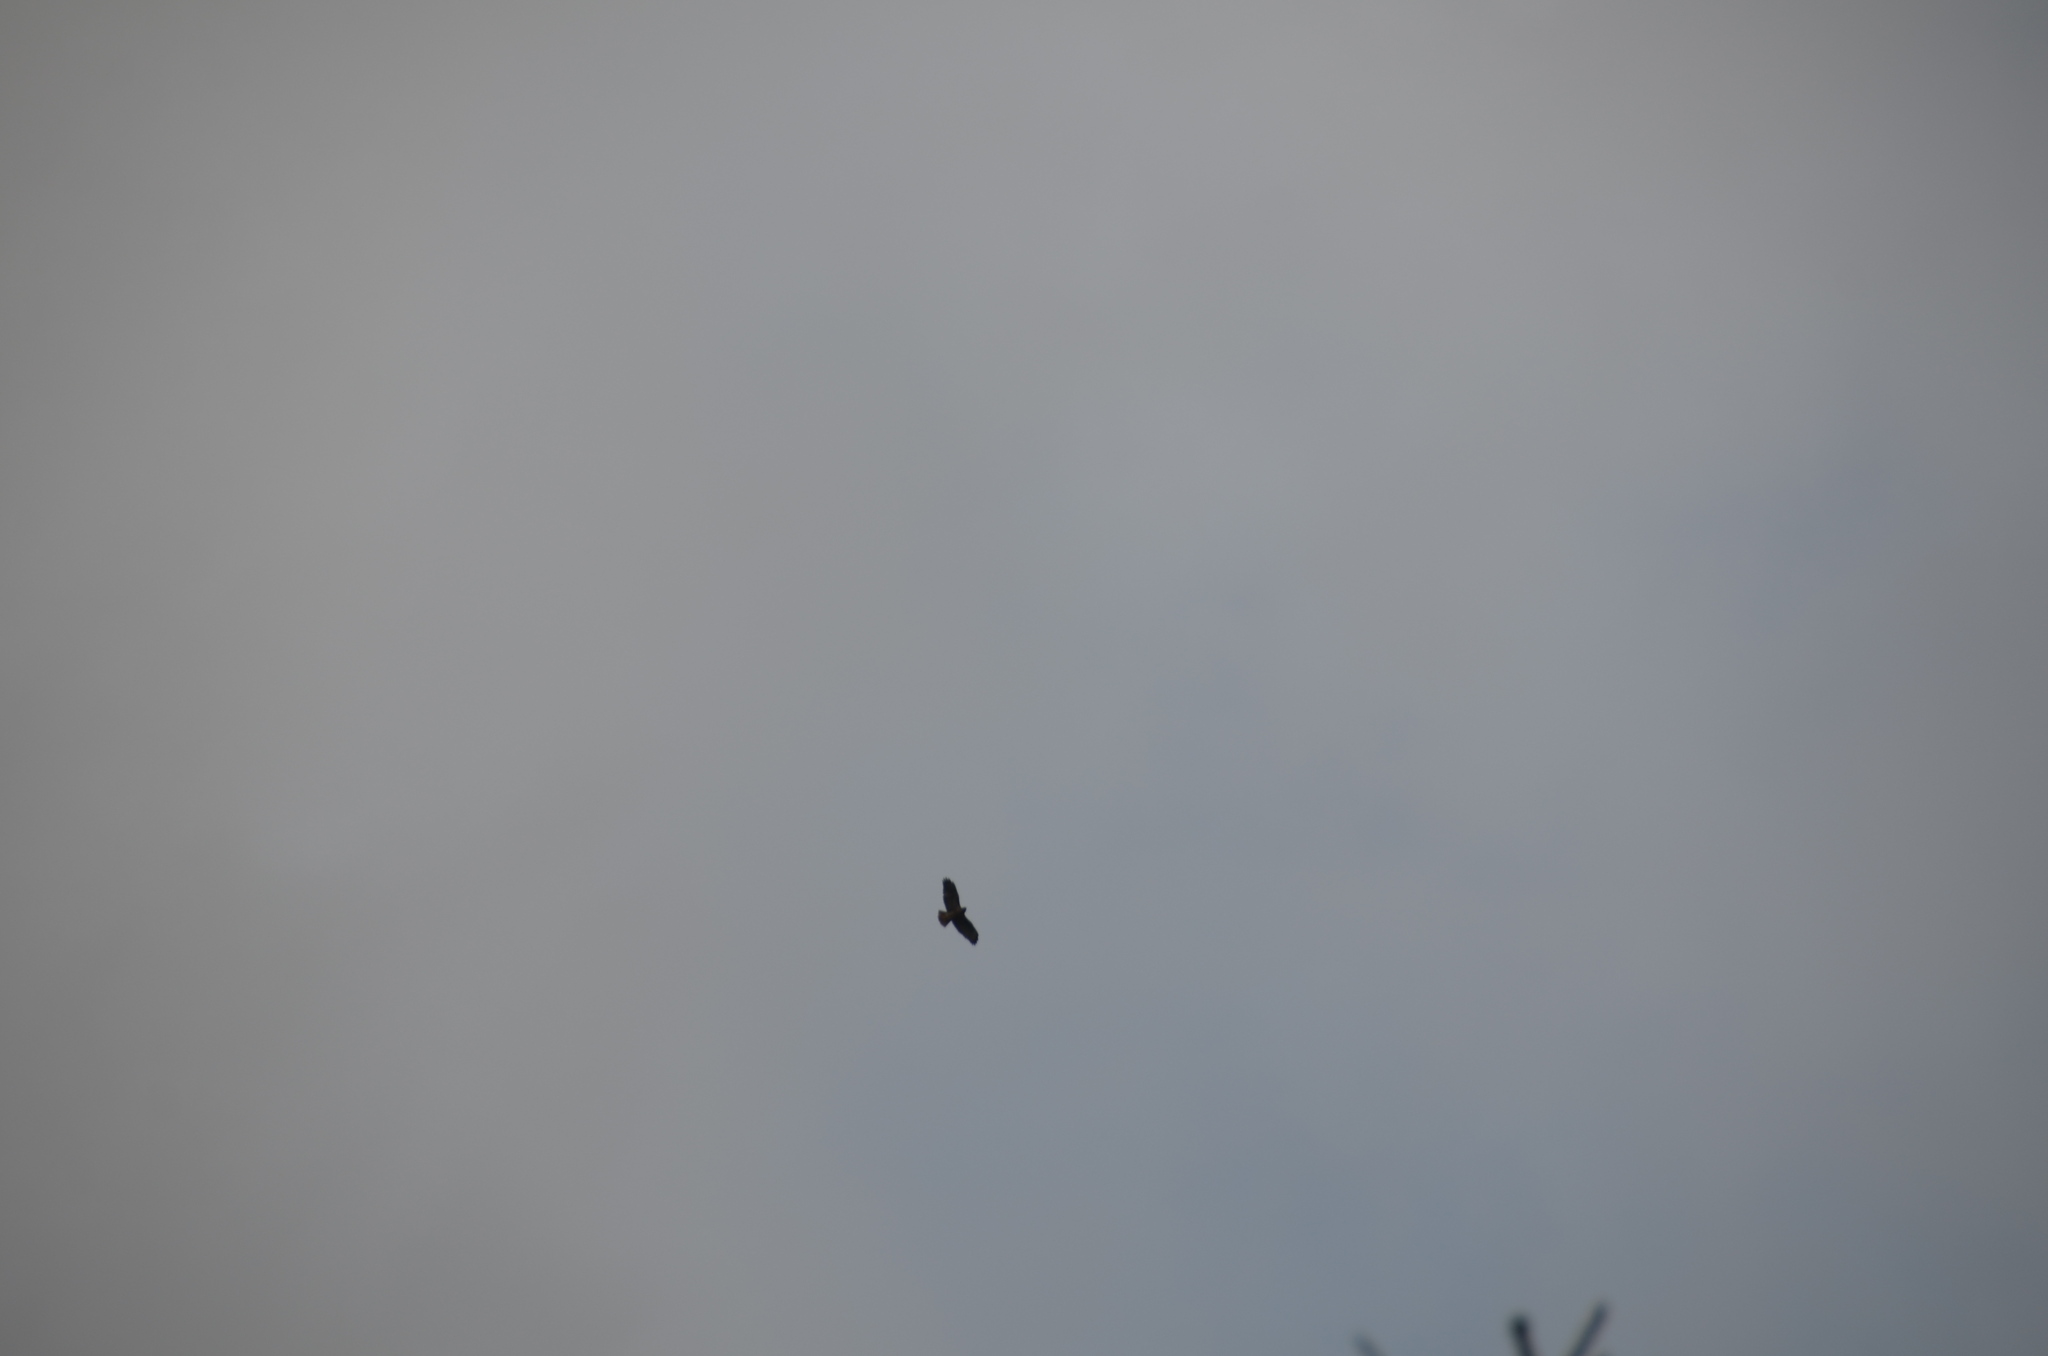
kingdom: Animalia
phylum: Chordata
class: Aves
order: Accipitriformes
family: Accipitridae
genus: Buteo
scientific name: Buteo jamaicensis
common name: Red-tailed hawk
